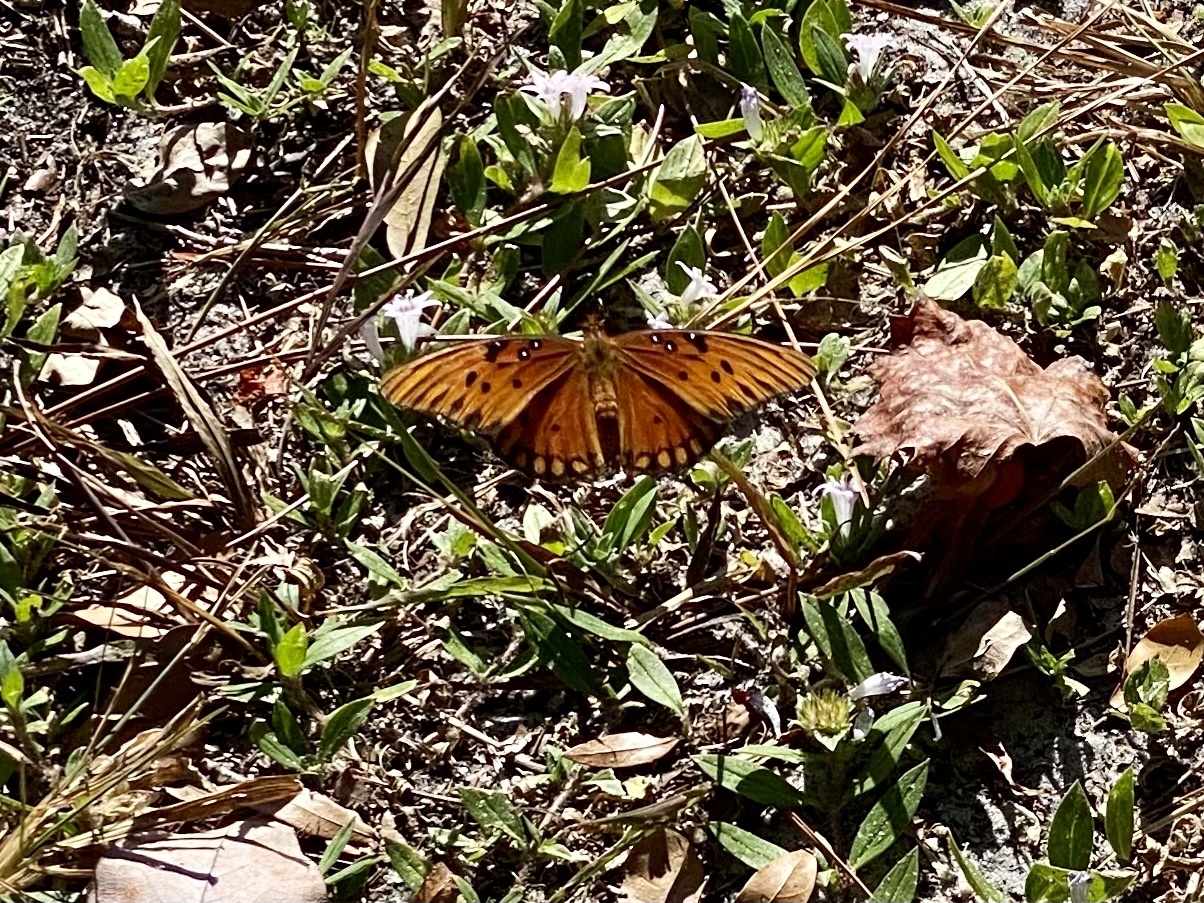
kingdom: Animalia
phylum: Arthropoda
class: Insecta
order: Lepidoptera
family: Nymphalidae
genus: Dione
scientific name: Dione vanillae
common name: Gulf fritillary
